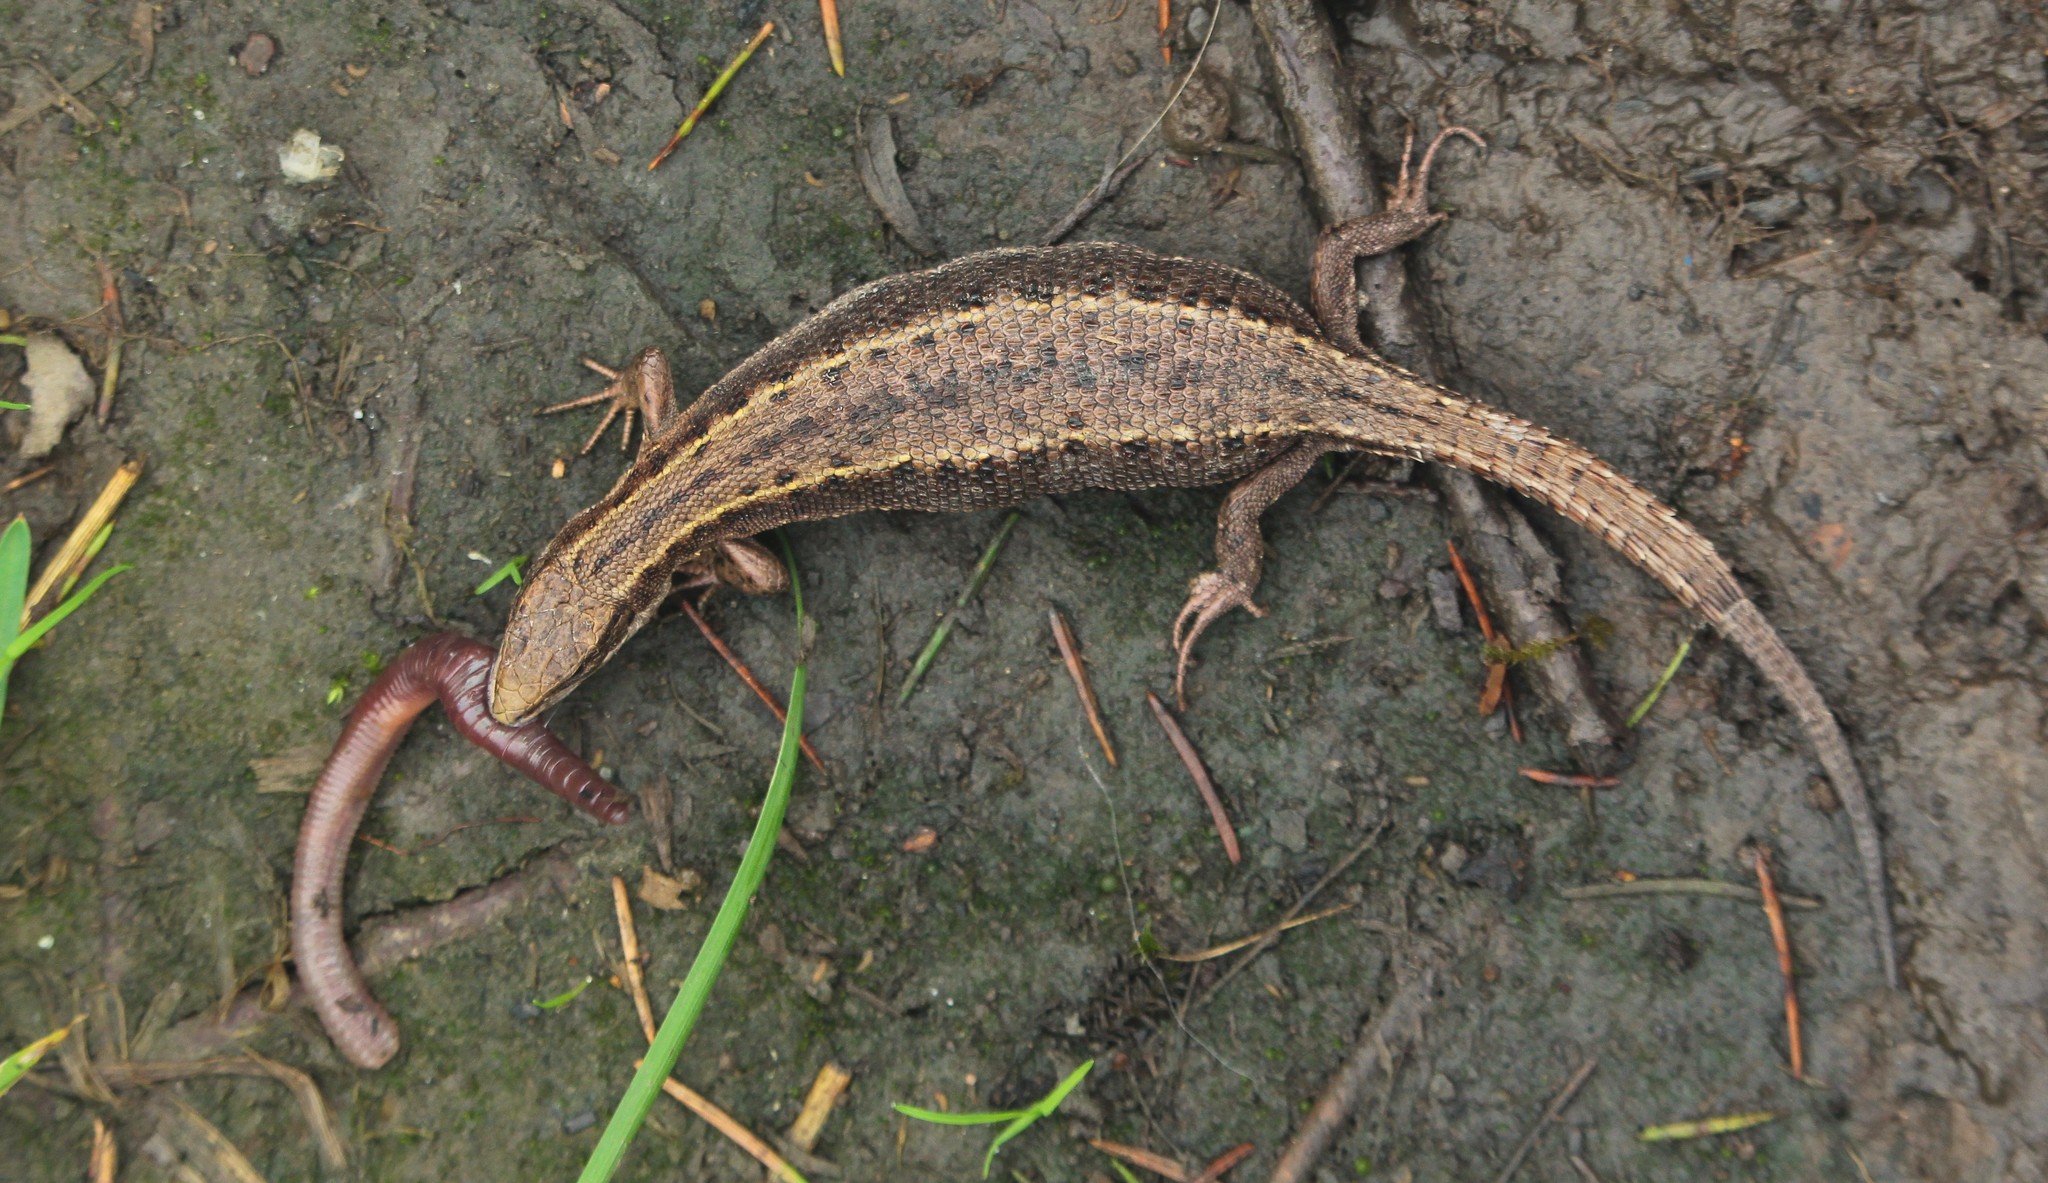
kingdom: Animalia
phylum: Chordata
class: Squamata
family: Lacertidae
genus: Zootoca
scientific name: Zootoca vivipara
